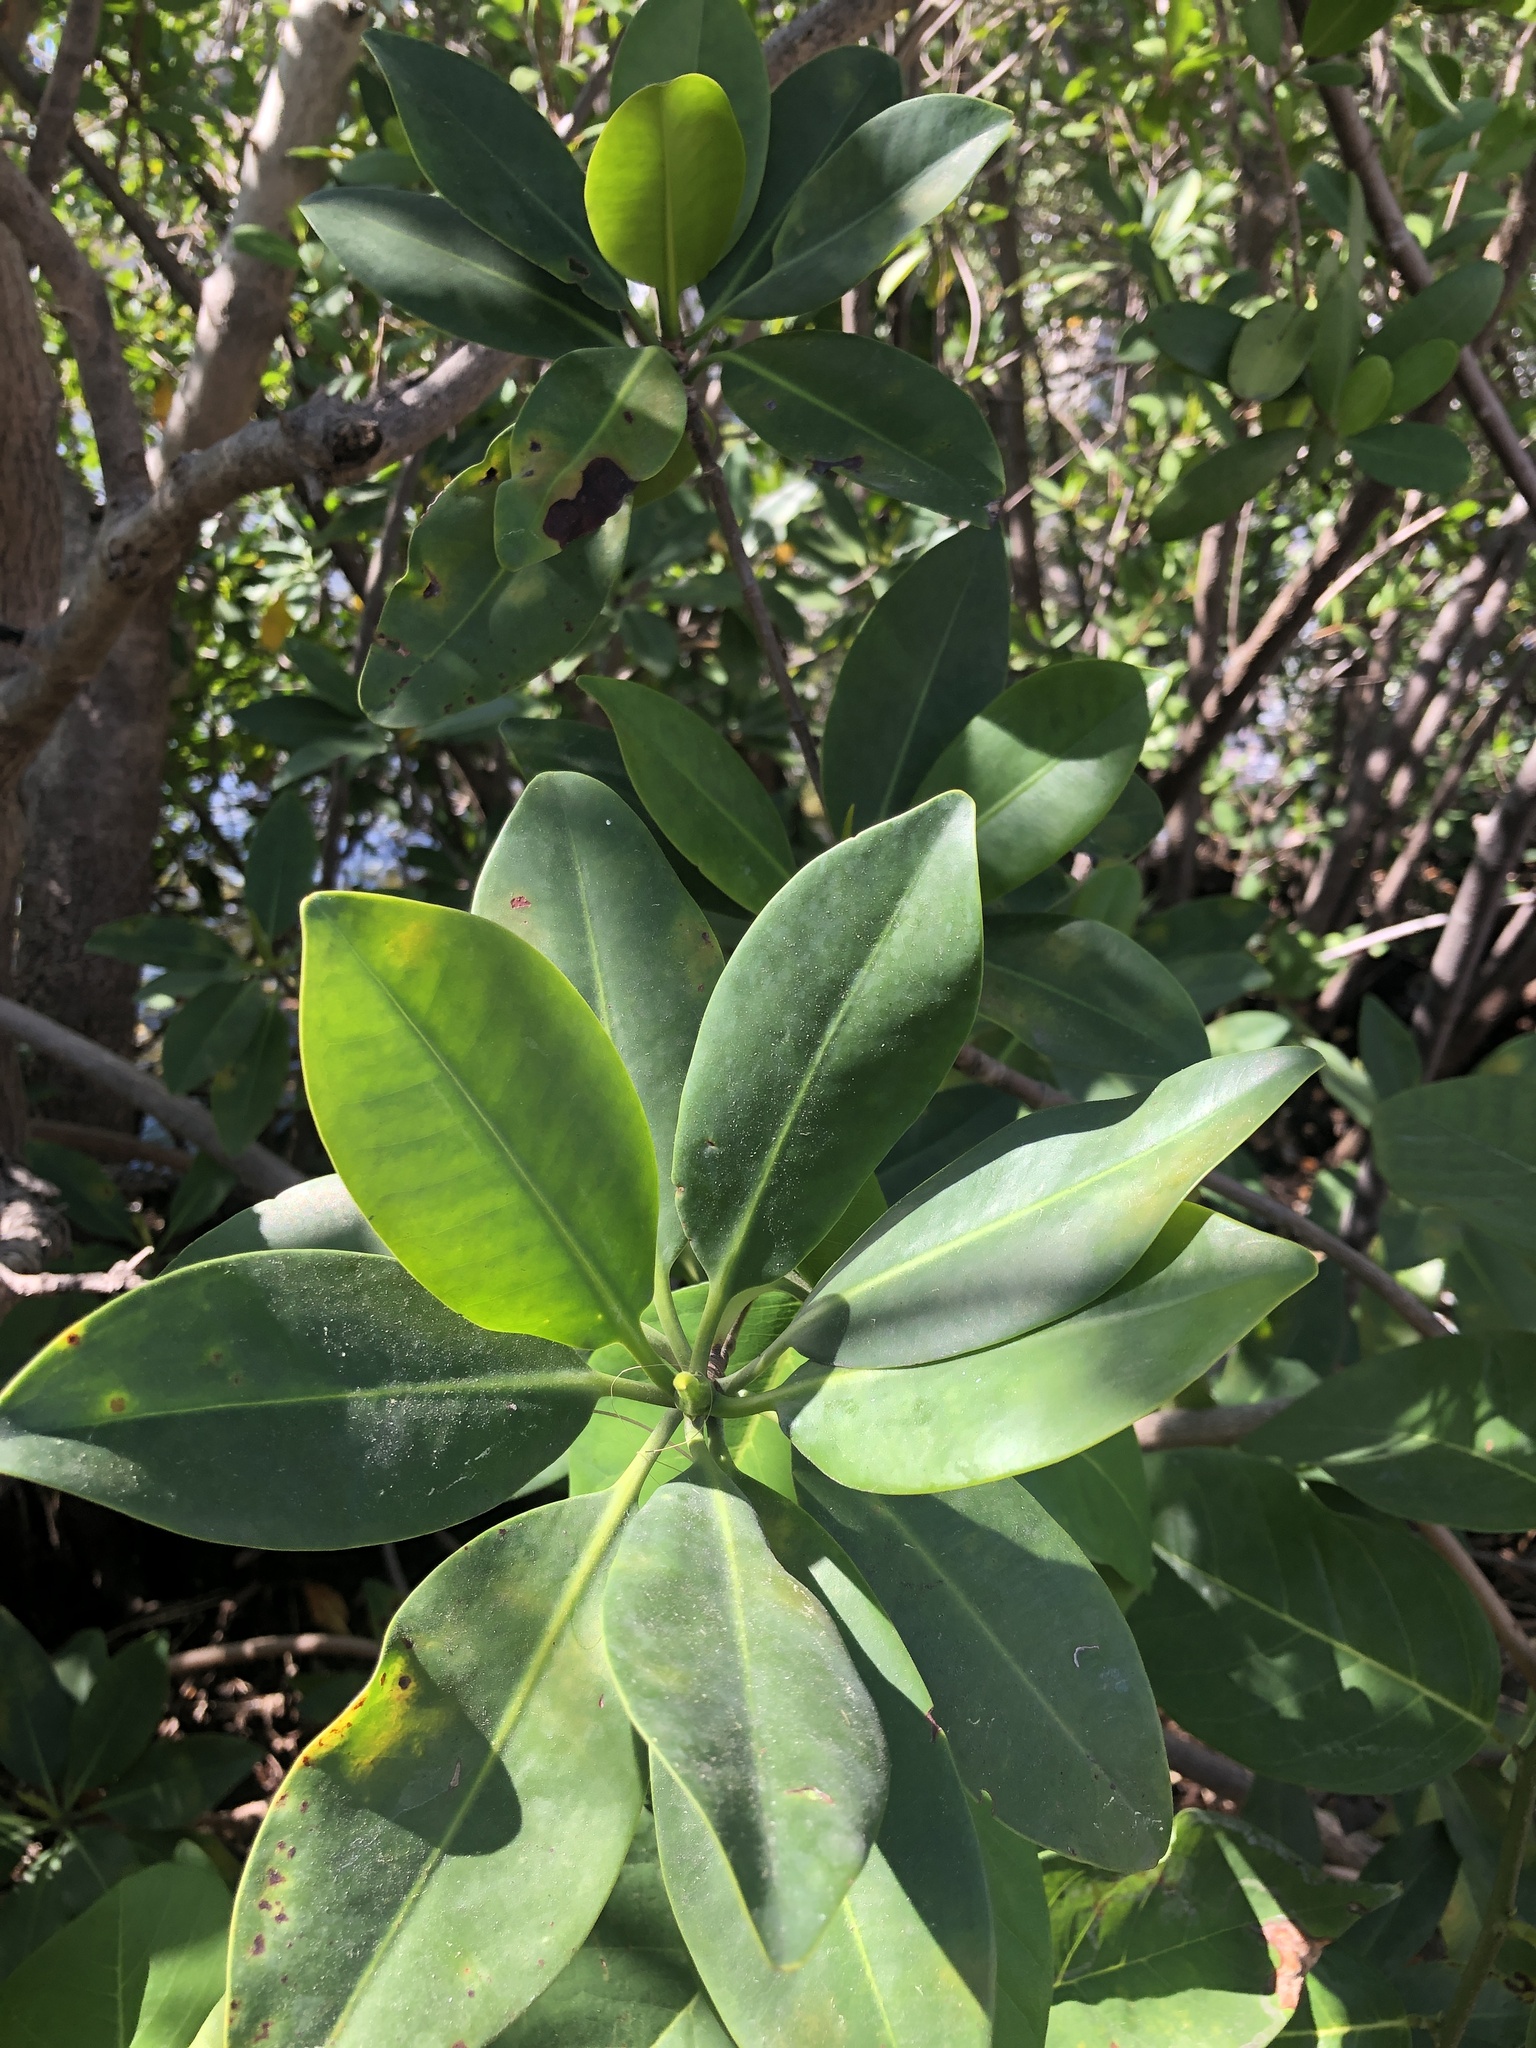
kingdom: Plantae
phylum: Tracheophyta
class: Magnoliopsida
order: Malpighiales
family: Rhizophoraceae
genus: Rhizophora
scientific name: Rhizophora mangle
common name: Red mangrove
